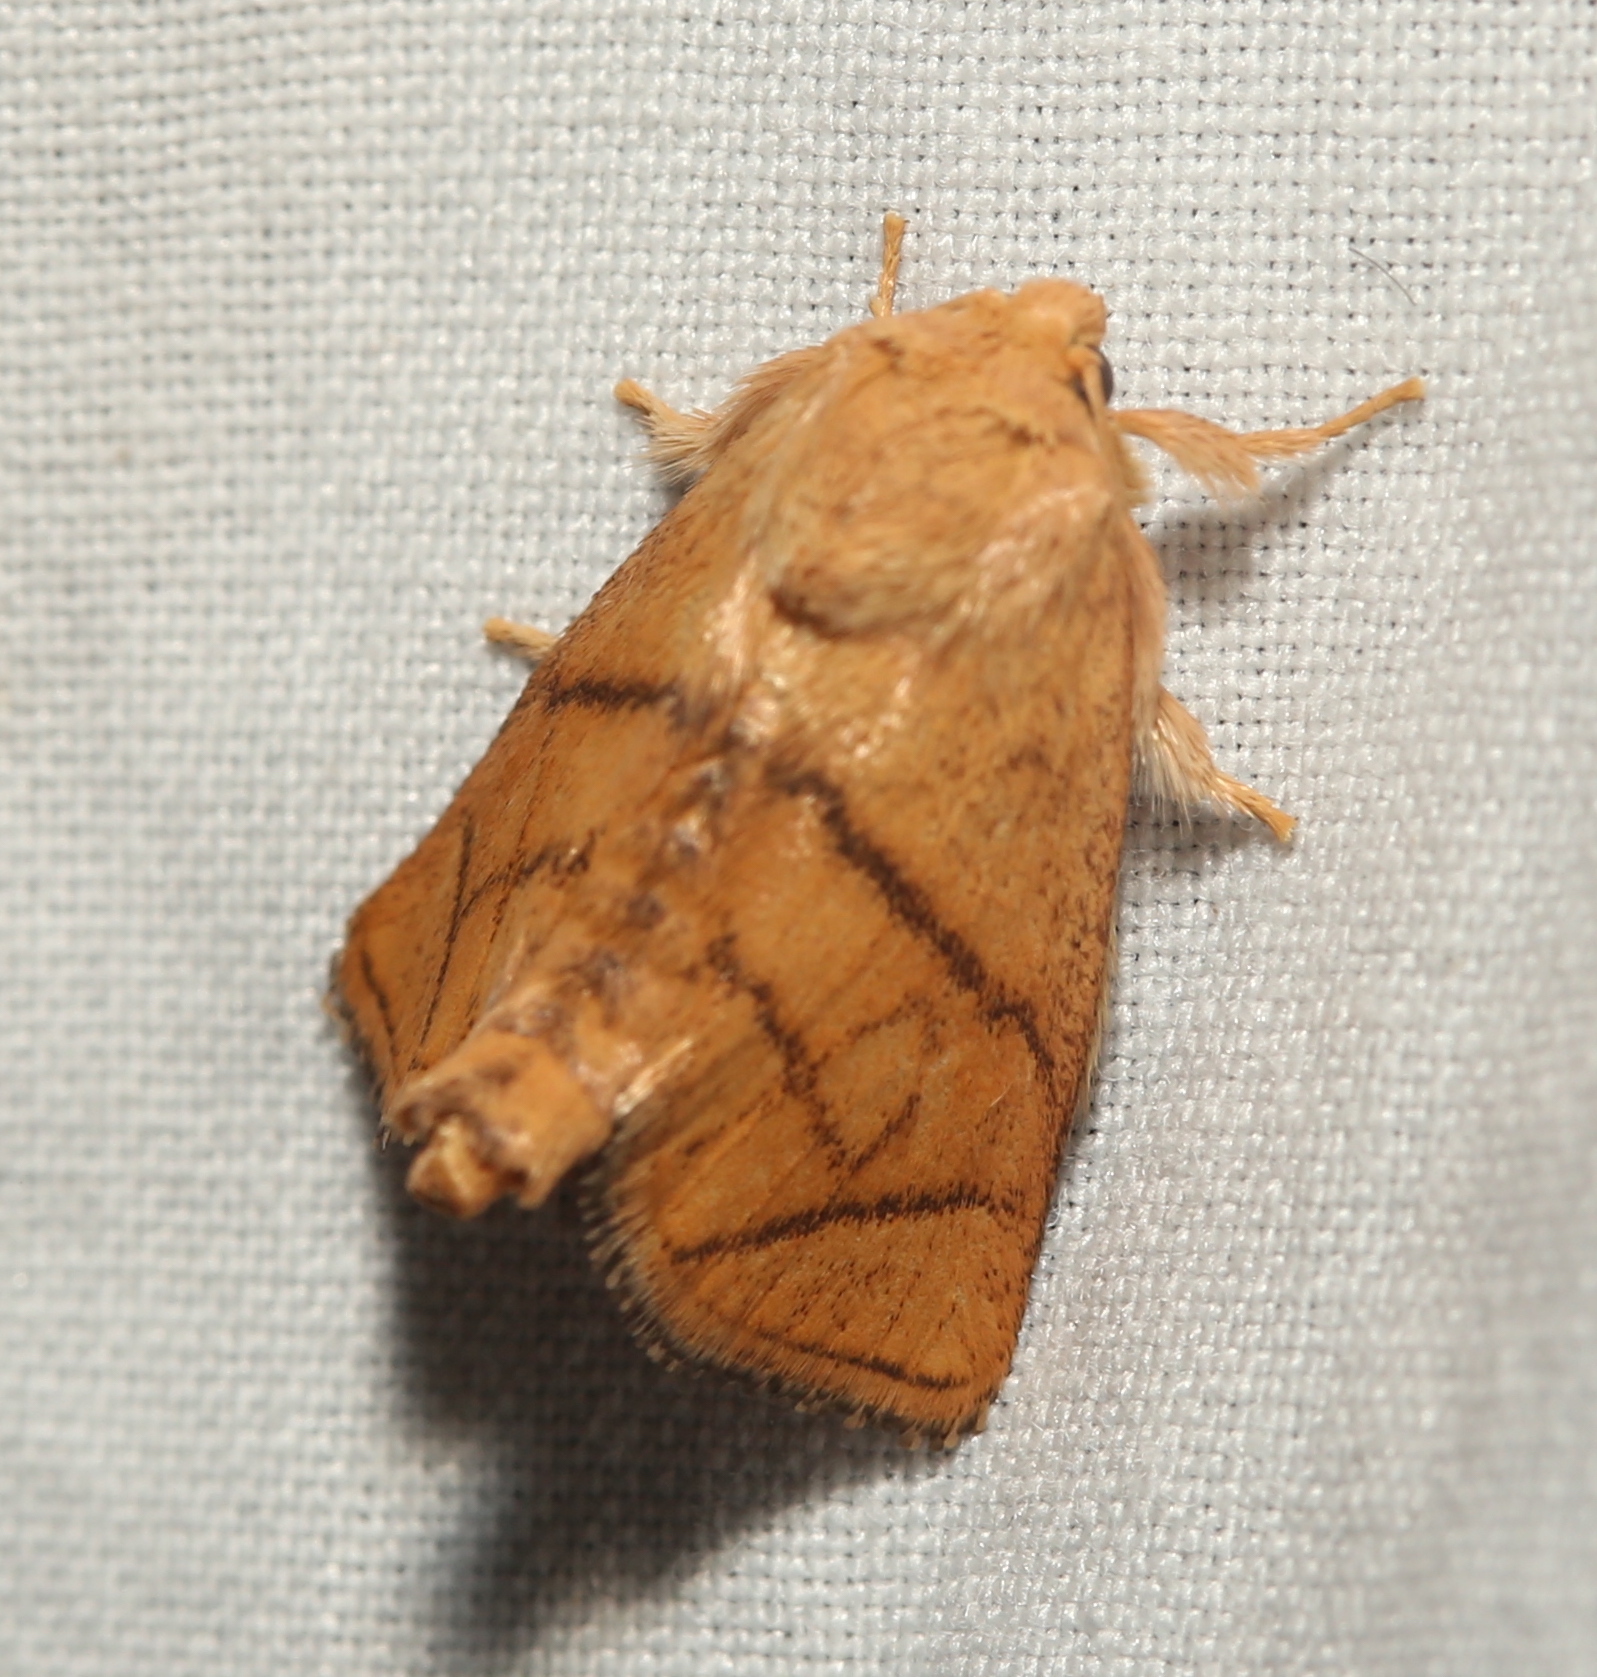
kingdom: Animalia
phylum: Arthropoda
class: Insecta
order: Lepidoptera
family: Limacodidae
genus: Apoda
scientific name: Apoda y-inversa
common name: Yellow-collared slug moth
